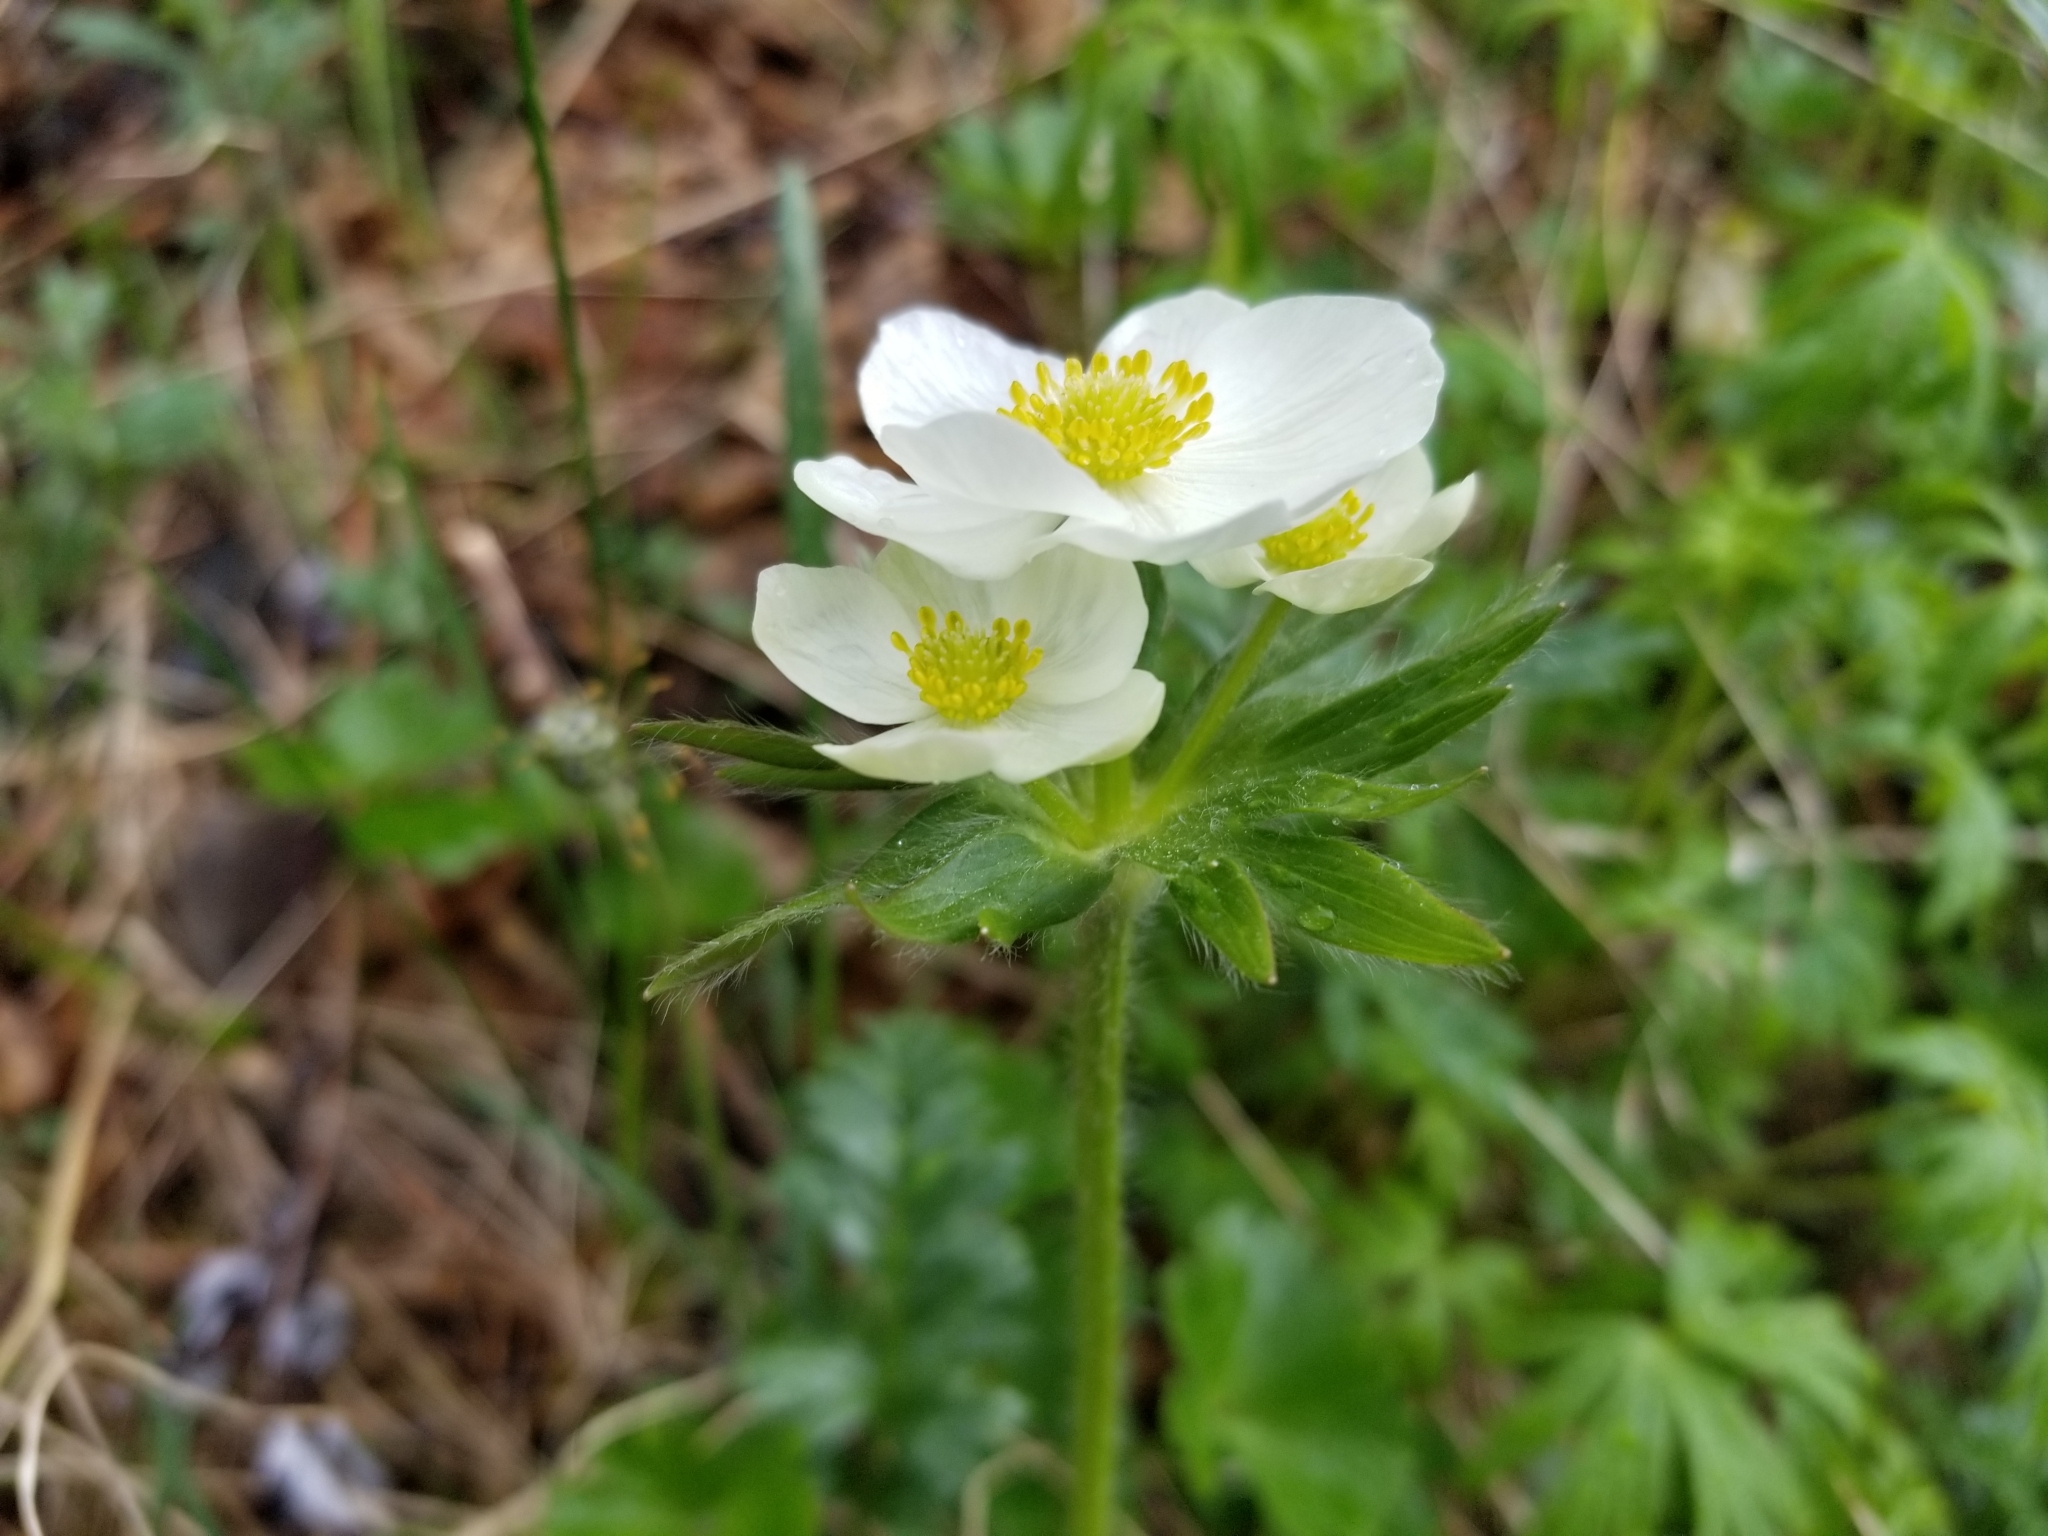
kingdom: Plantae
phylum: Tracheophyta
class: Magnoliopsida
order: Ranunculales
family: Ranunculaceae
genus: Anemonastrum
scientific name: Anemonastrum narcissiflorum
